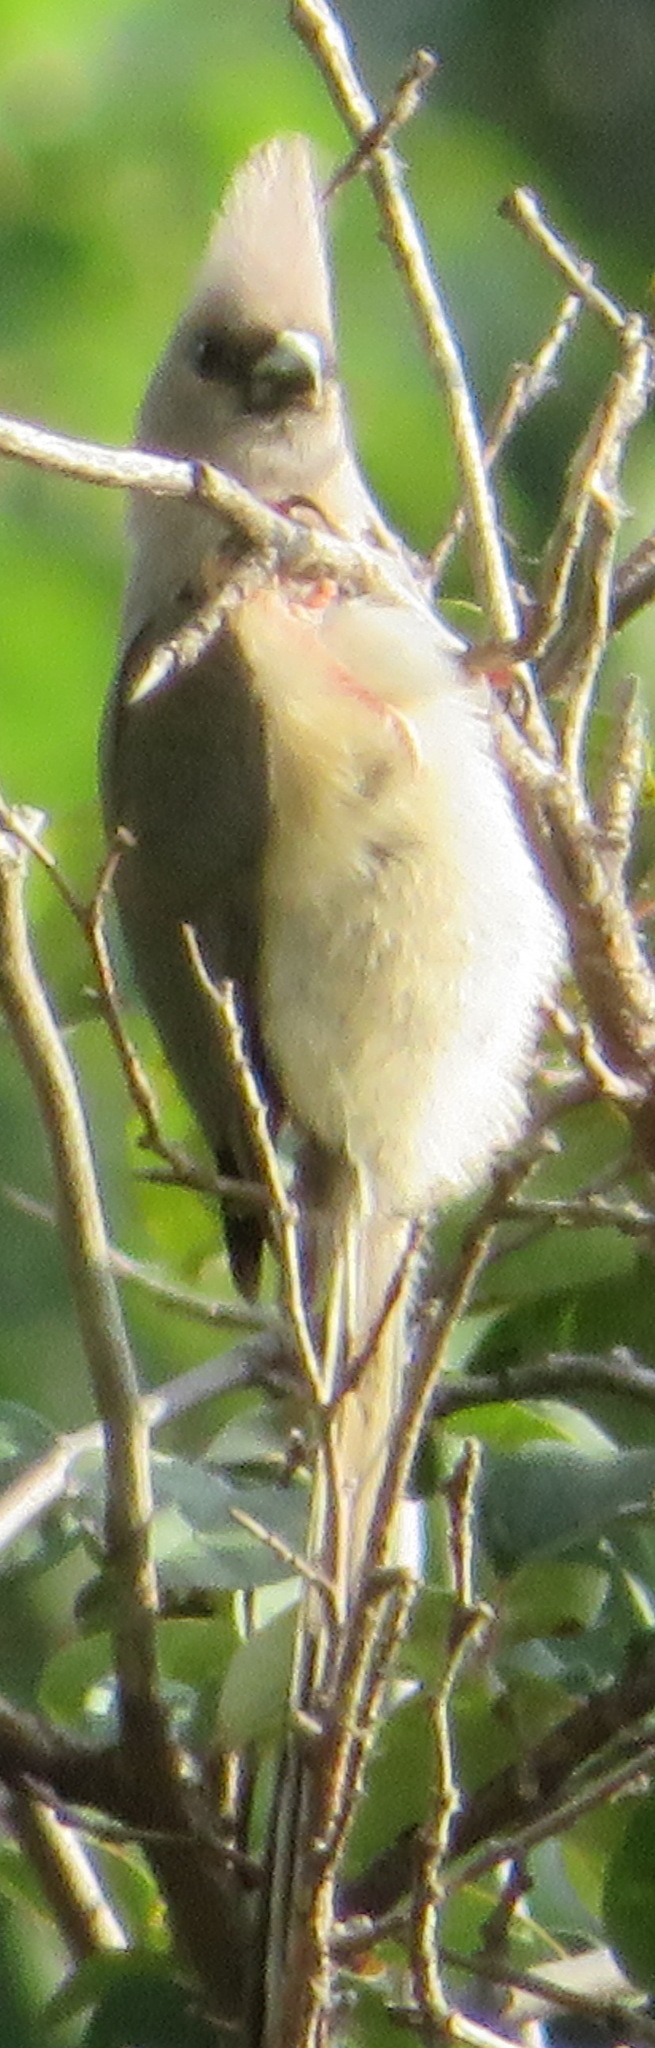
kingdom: Animalia
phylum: Chordata
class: Aves
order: Coliiformes
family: Coliidae
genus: Colius
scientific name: Colius striatus
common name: Speckled mousebird
